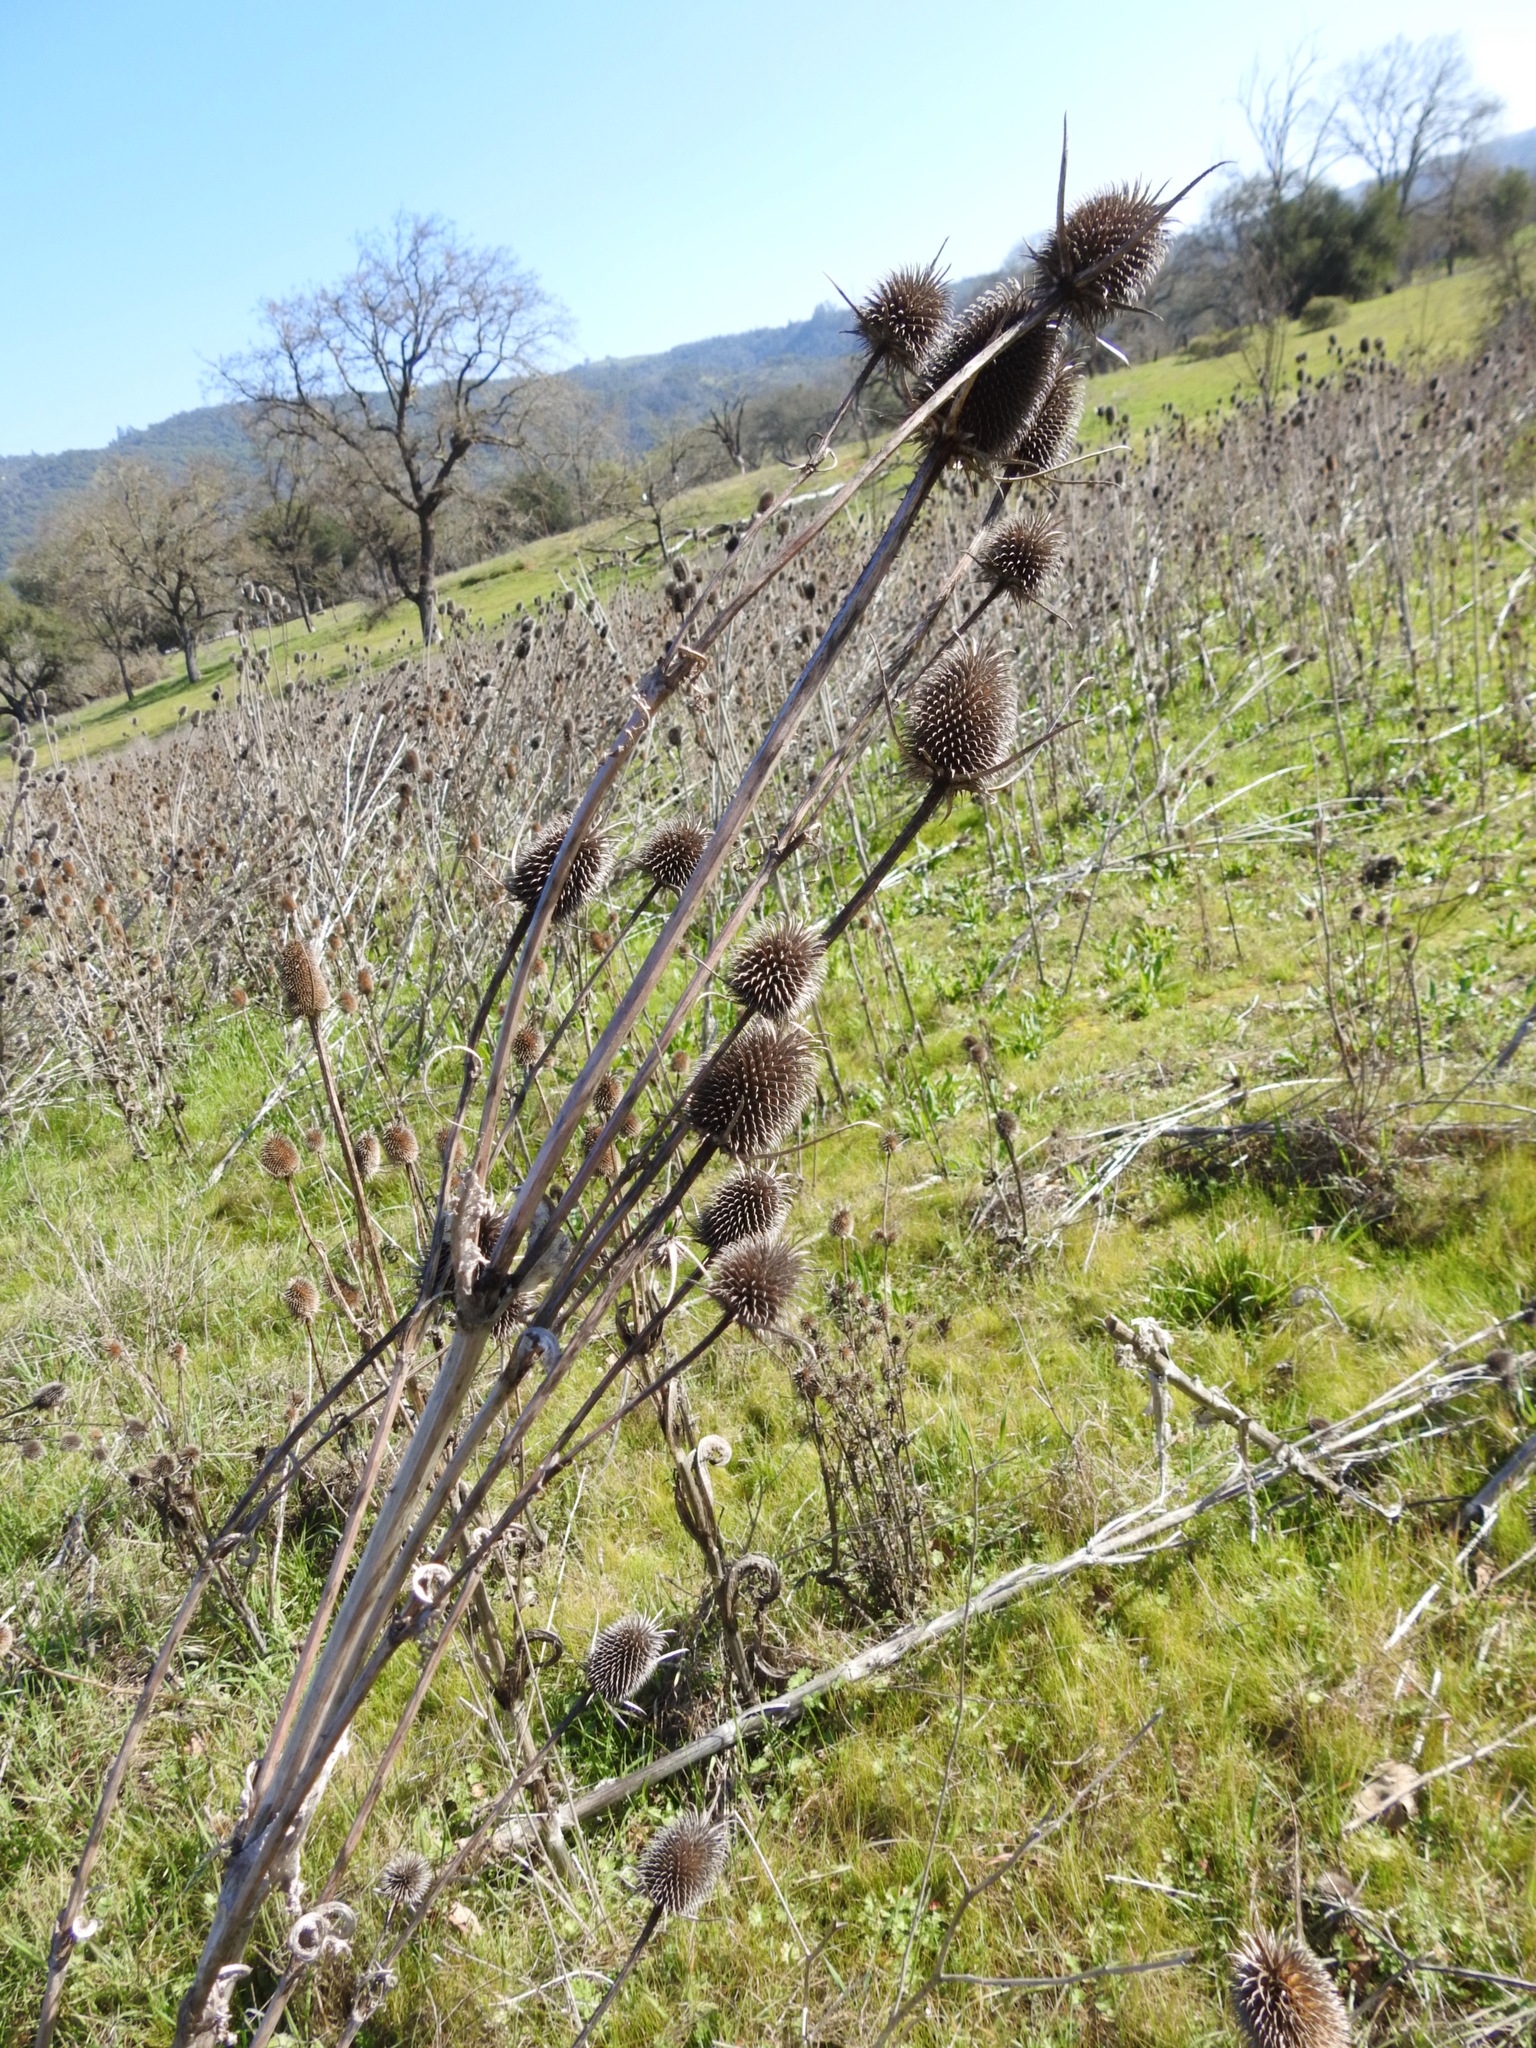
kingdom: Plantae
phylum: Tracheophyta
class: Magnoliopsida
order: Dipsacales
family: Caprifoliaceae
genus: Dipsacus
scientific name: Dipsacus sativus
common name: Fuller's teasel
